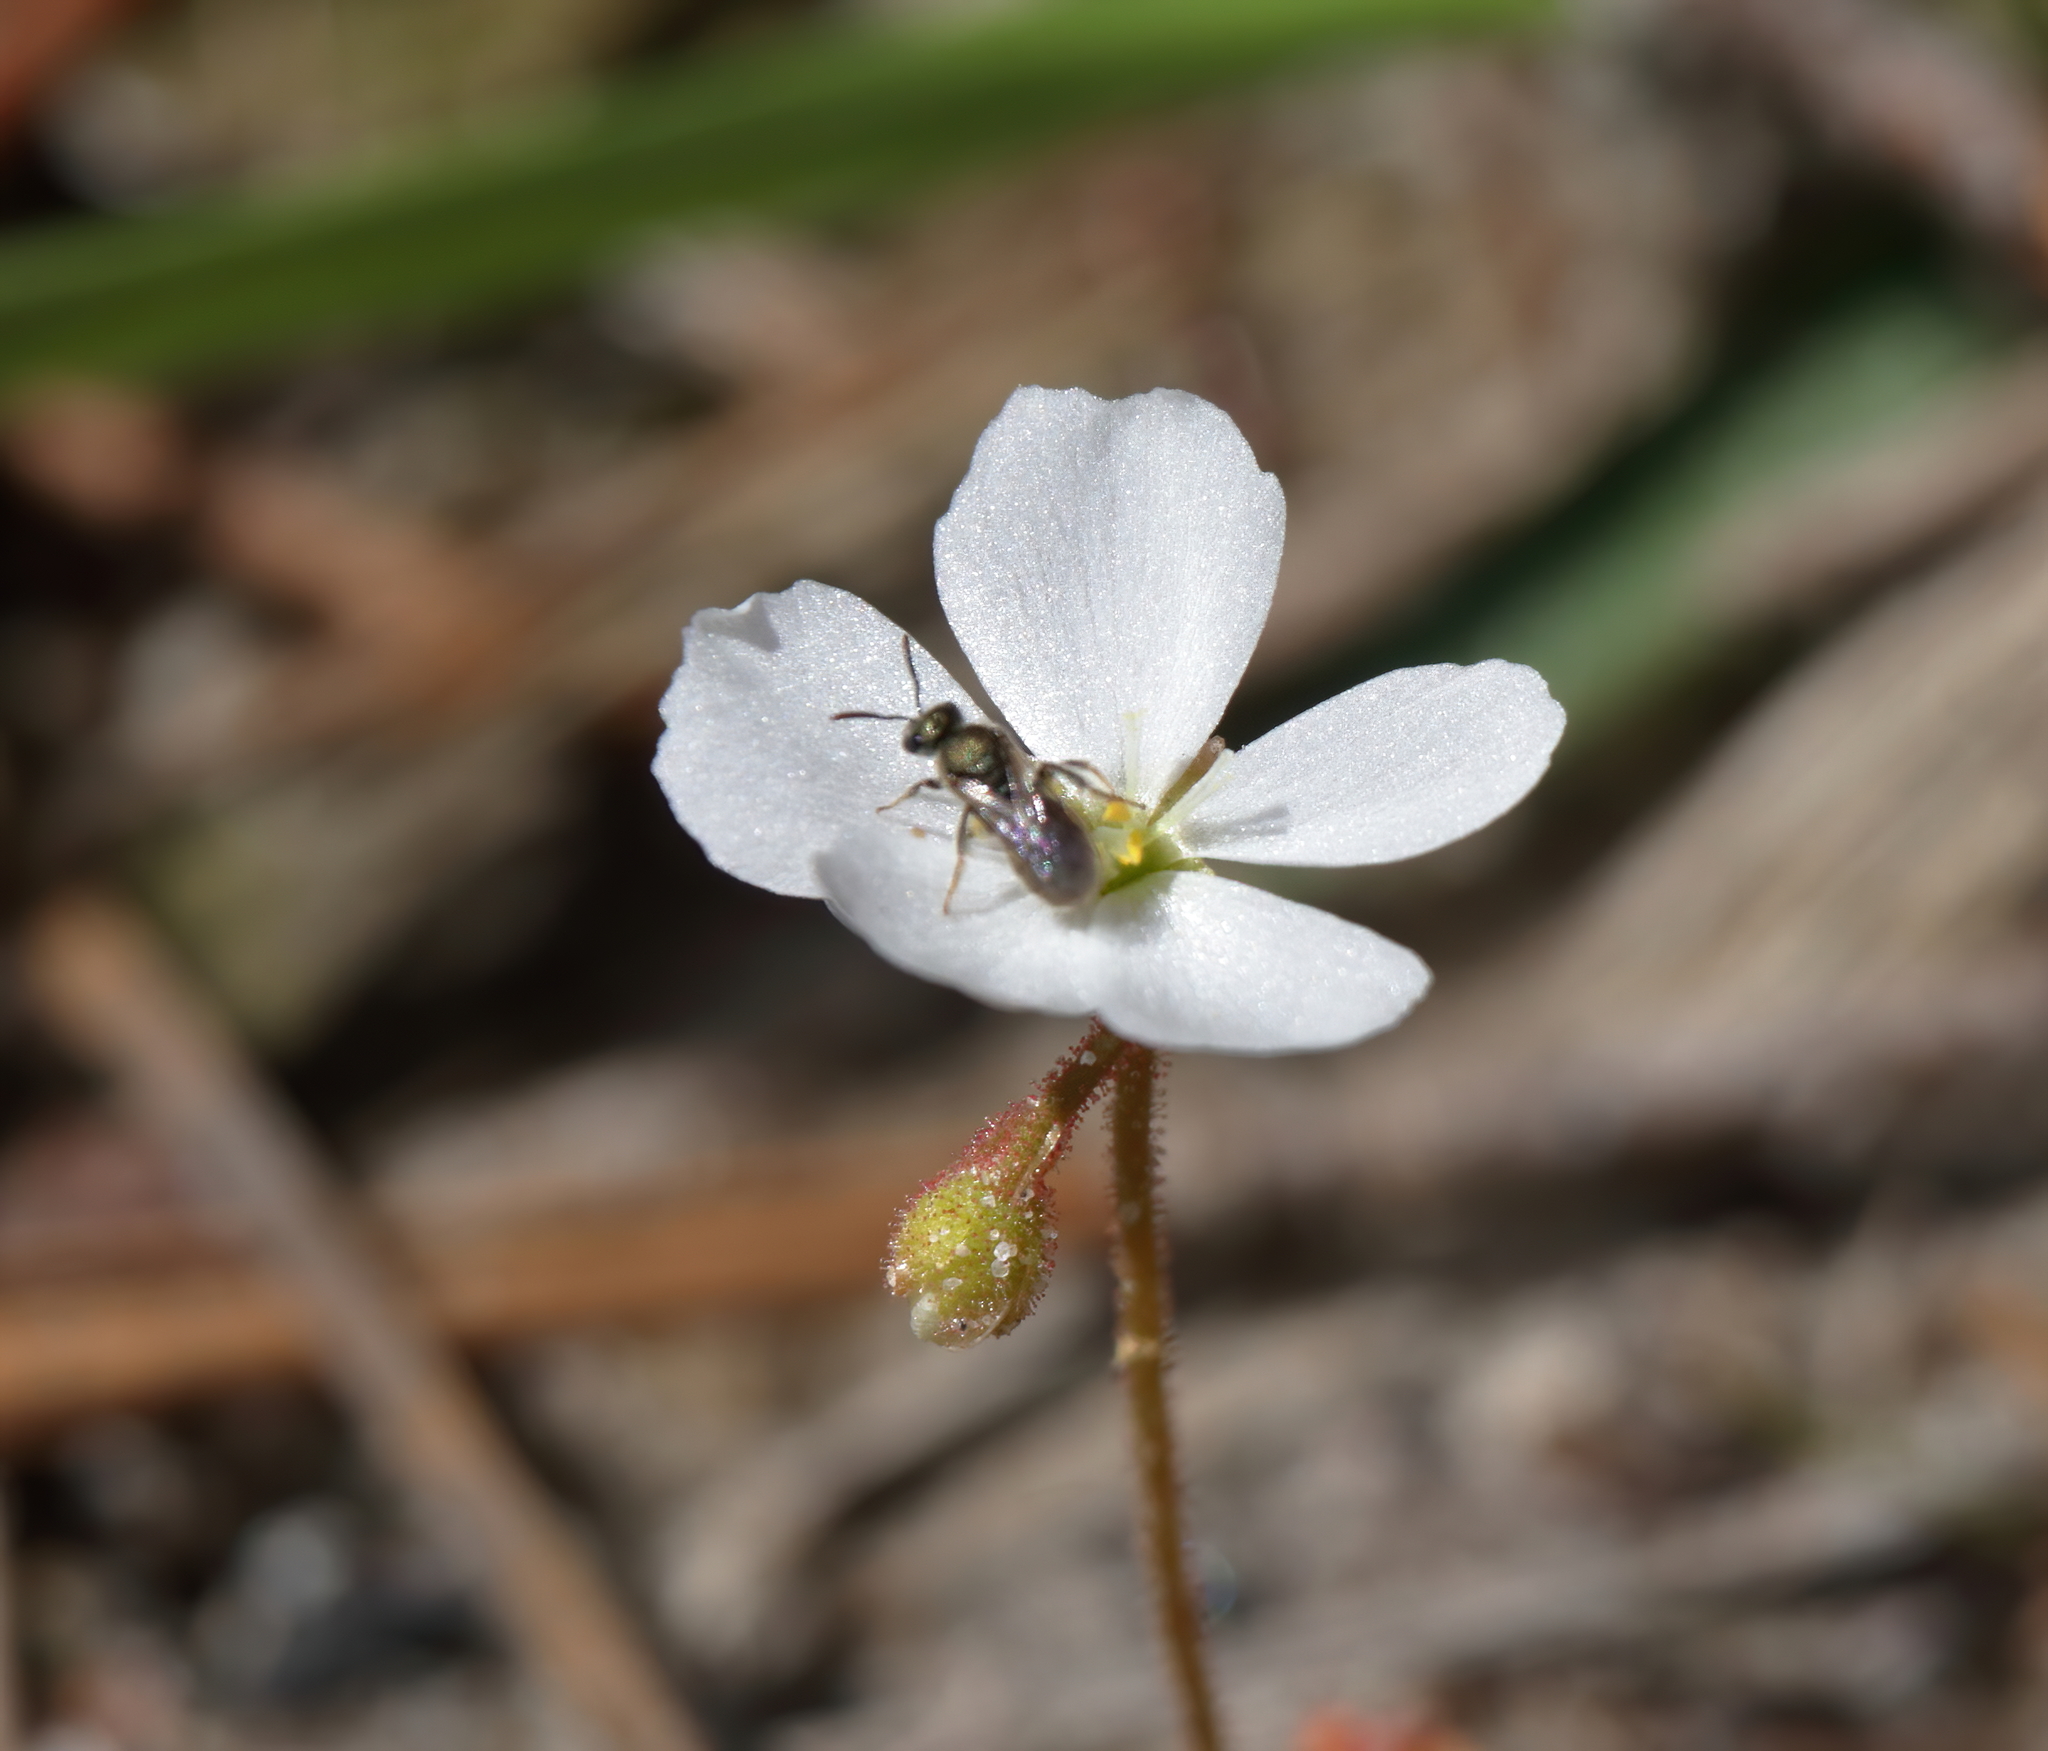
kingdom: Plantae
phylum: Tracheophyta
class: Magnoliopsida
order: Caryophyllales
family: Droseraceae
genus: Drosera
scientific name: Drosera brevifolia
